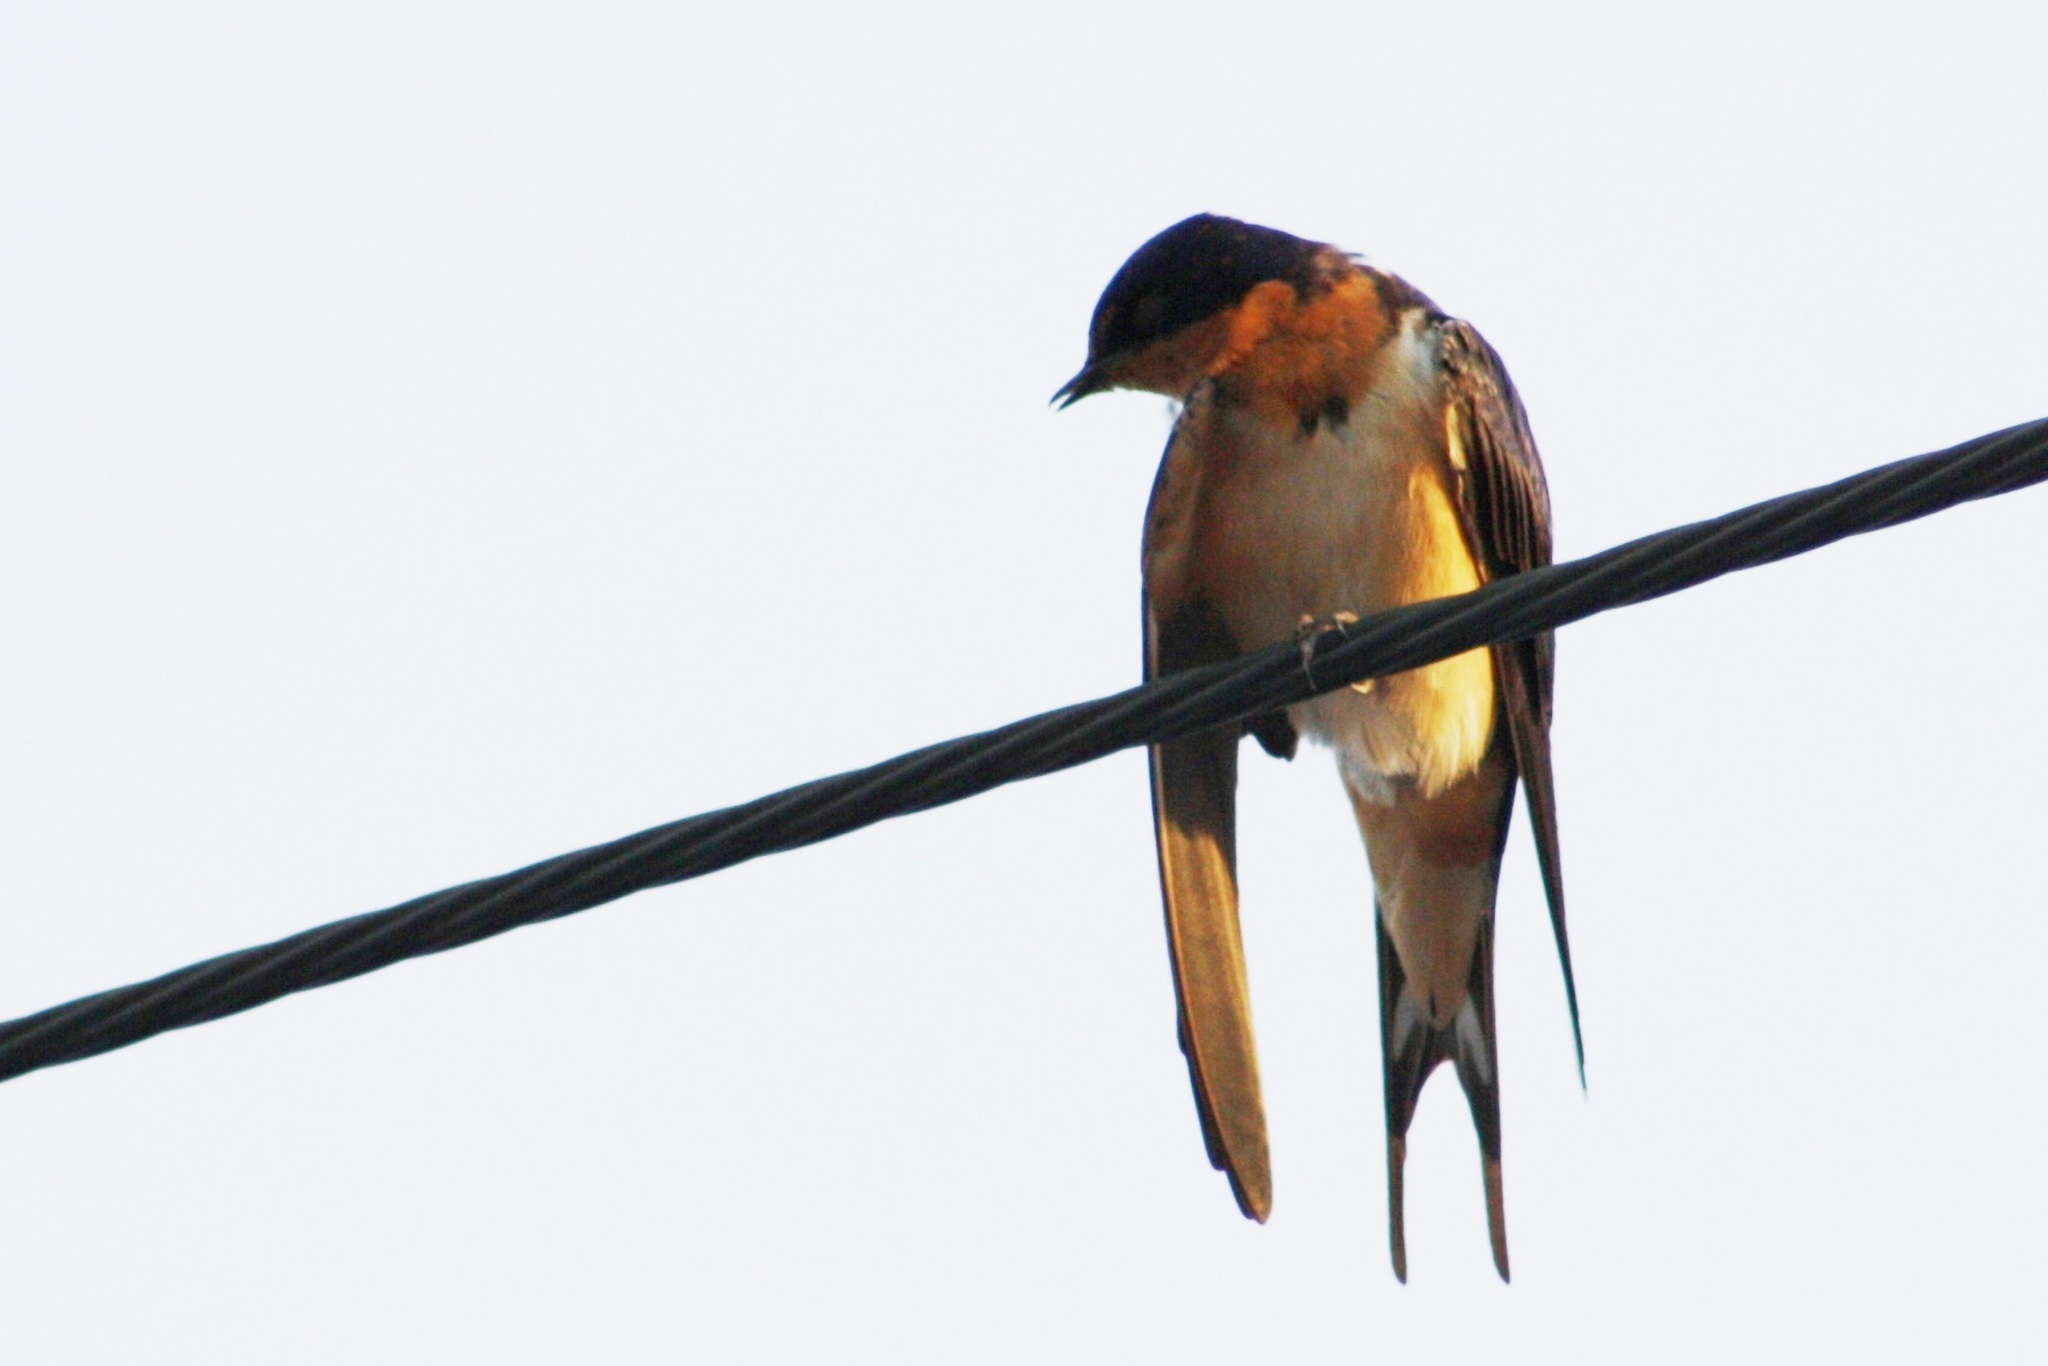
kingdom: Animalia
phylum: Chordata
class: Aves
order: Passeriformes
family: Hirundinidae
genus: Hirundo
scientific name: Hirundo rustica
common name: Barn swallow
